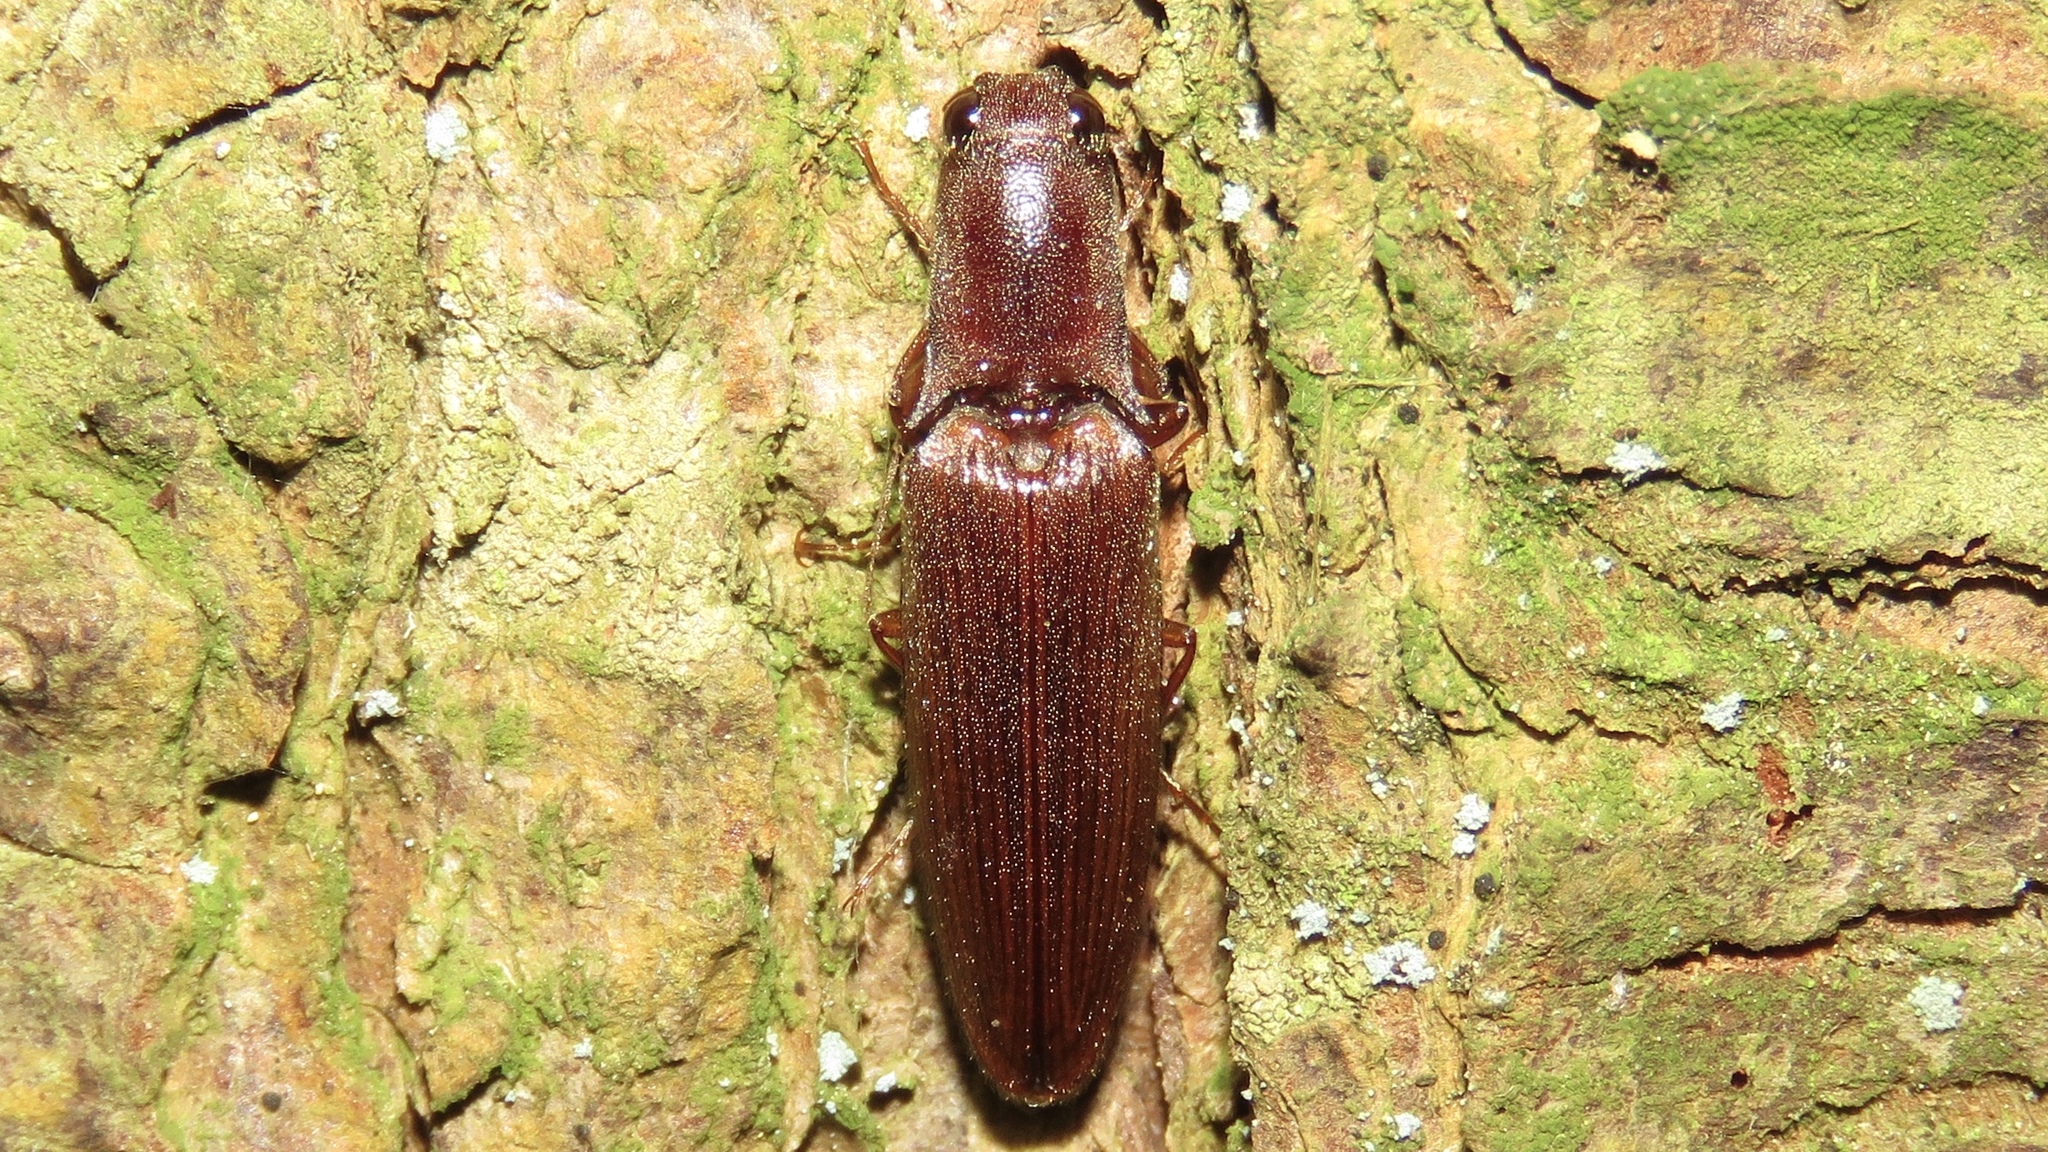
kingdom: Animalia
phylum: Arthropoda
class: Insecta
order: Coleoptera
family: Elateridae
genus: Proludius
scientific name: Proludius pyrros
